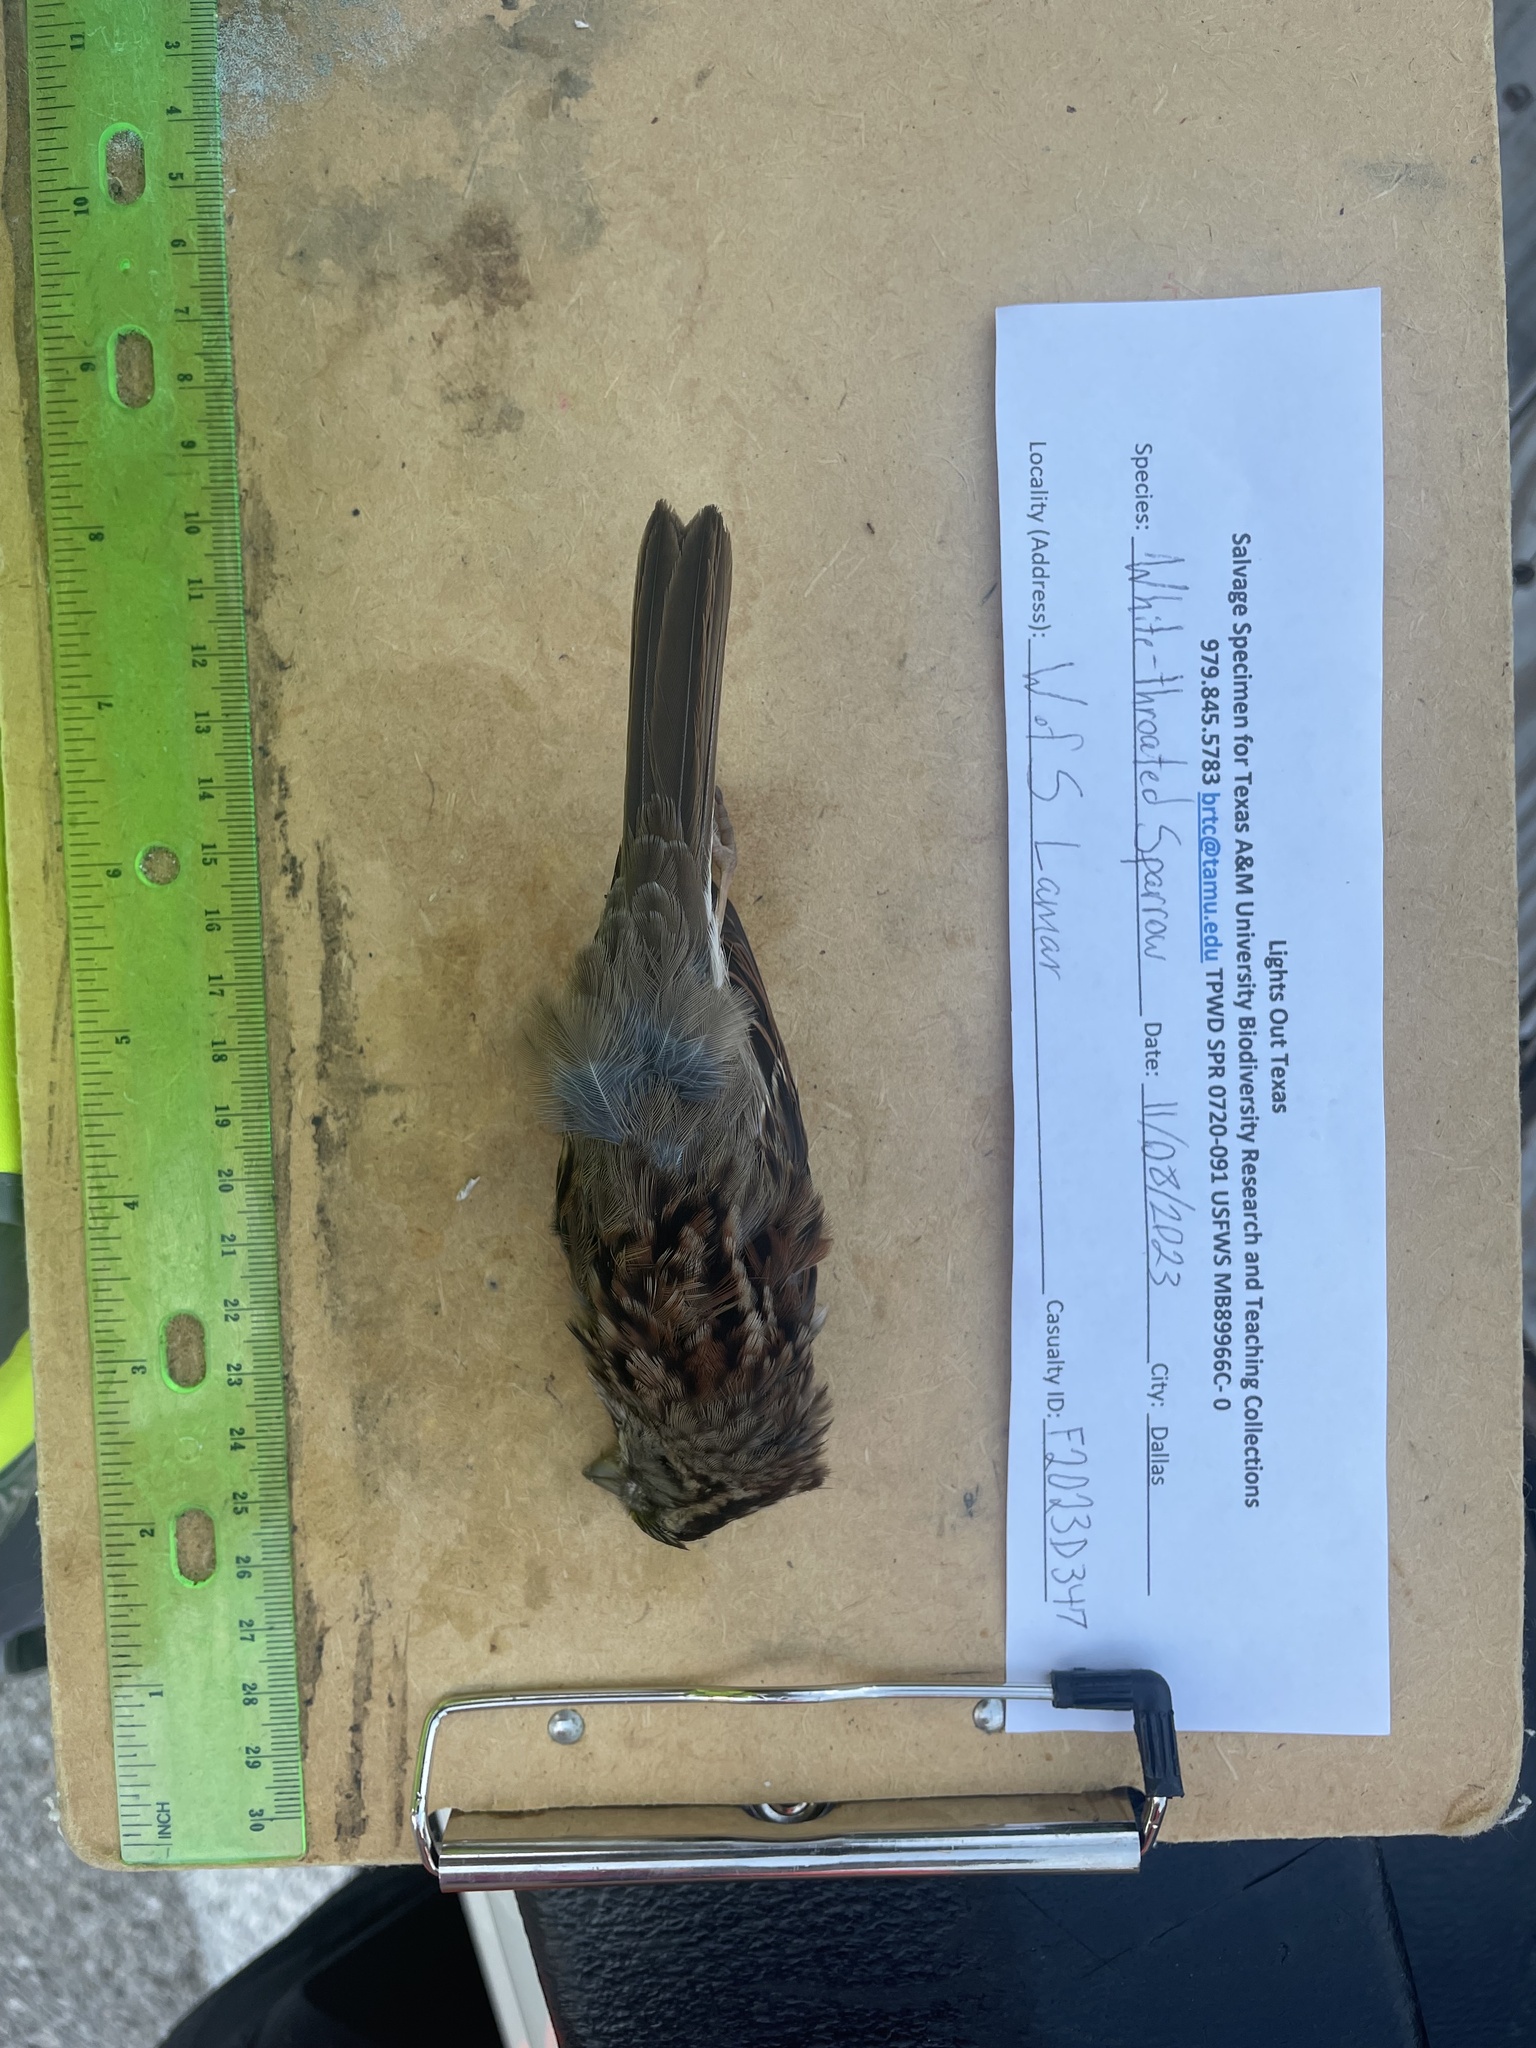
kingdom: Animalia
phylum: Chordata
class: Aves
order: Passeriformes
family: Passerellidae
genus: Zonotrichia
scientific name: Zonotrichia albicollis
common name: White-throated sparrow
